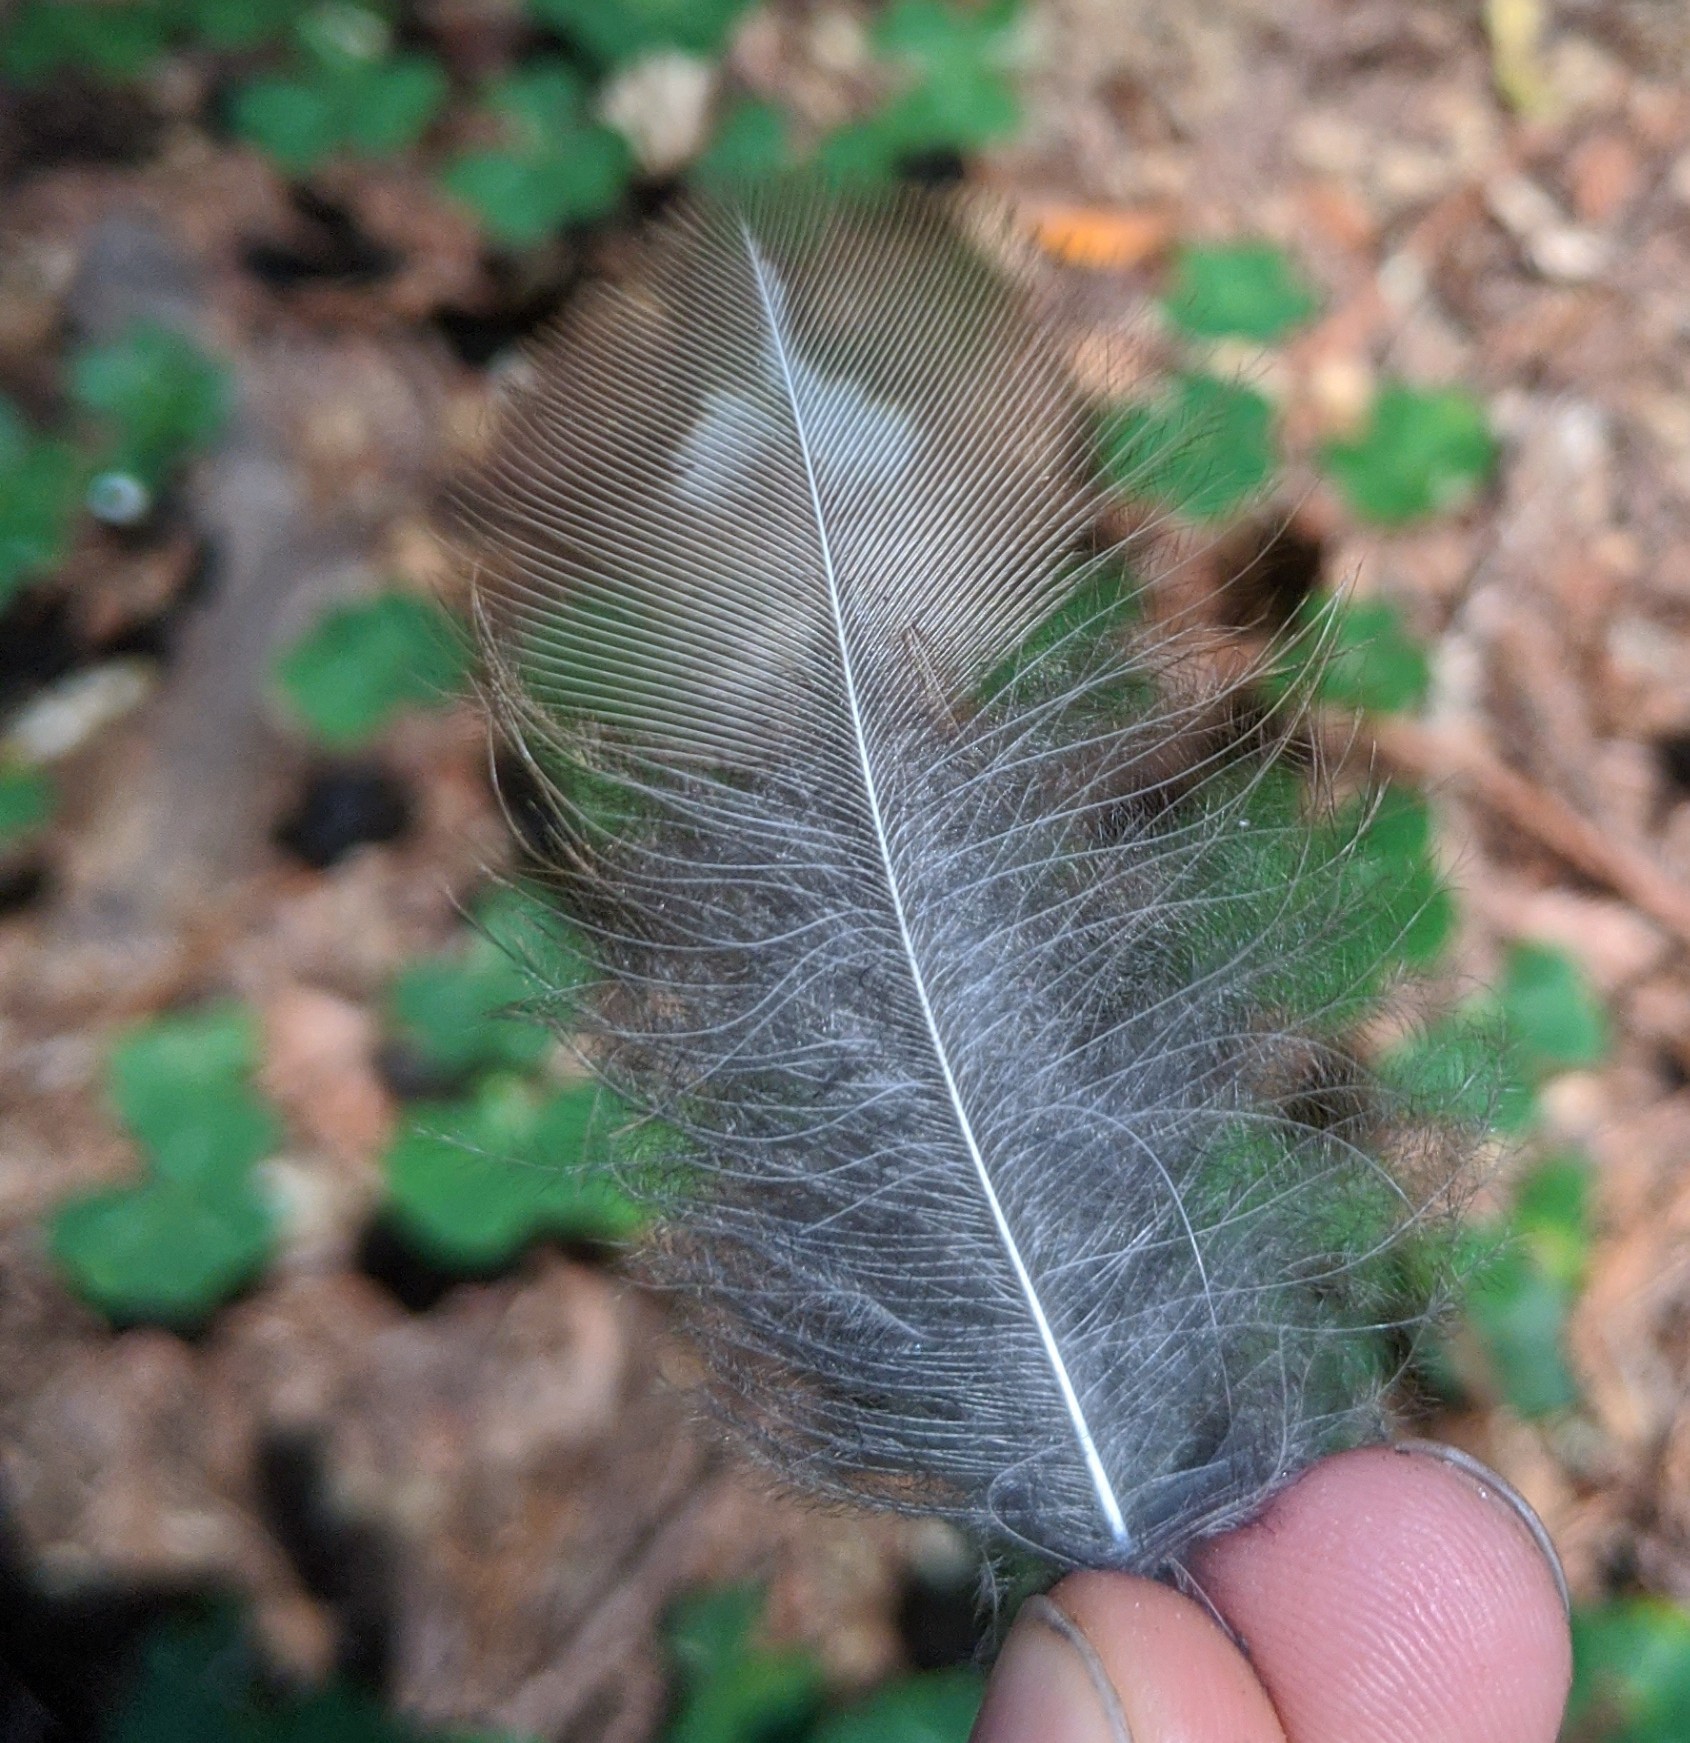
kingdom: Animalia
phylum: Chordata
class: Aves
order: Strigiformes
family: Strigidae
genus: Strix
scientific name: Strix varia
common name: Barred owl
